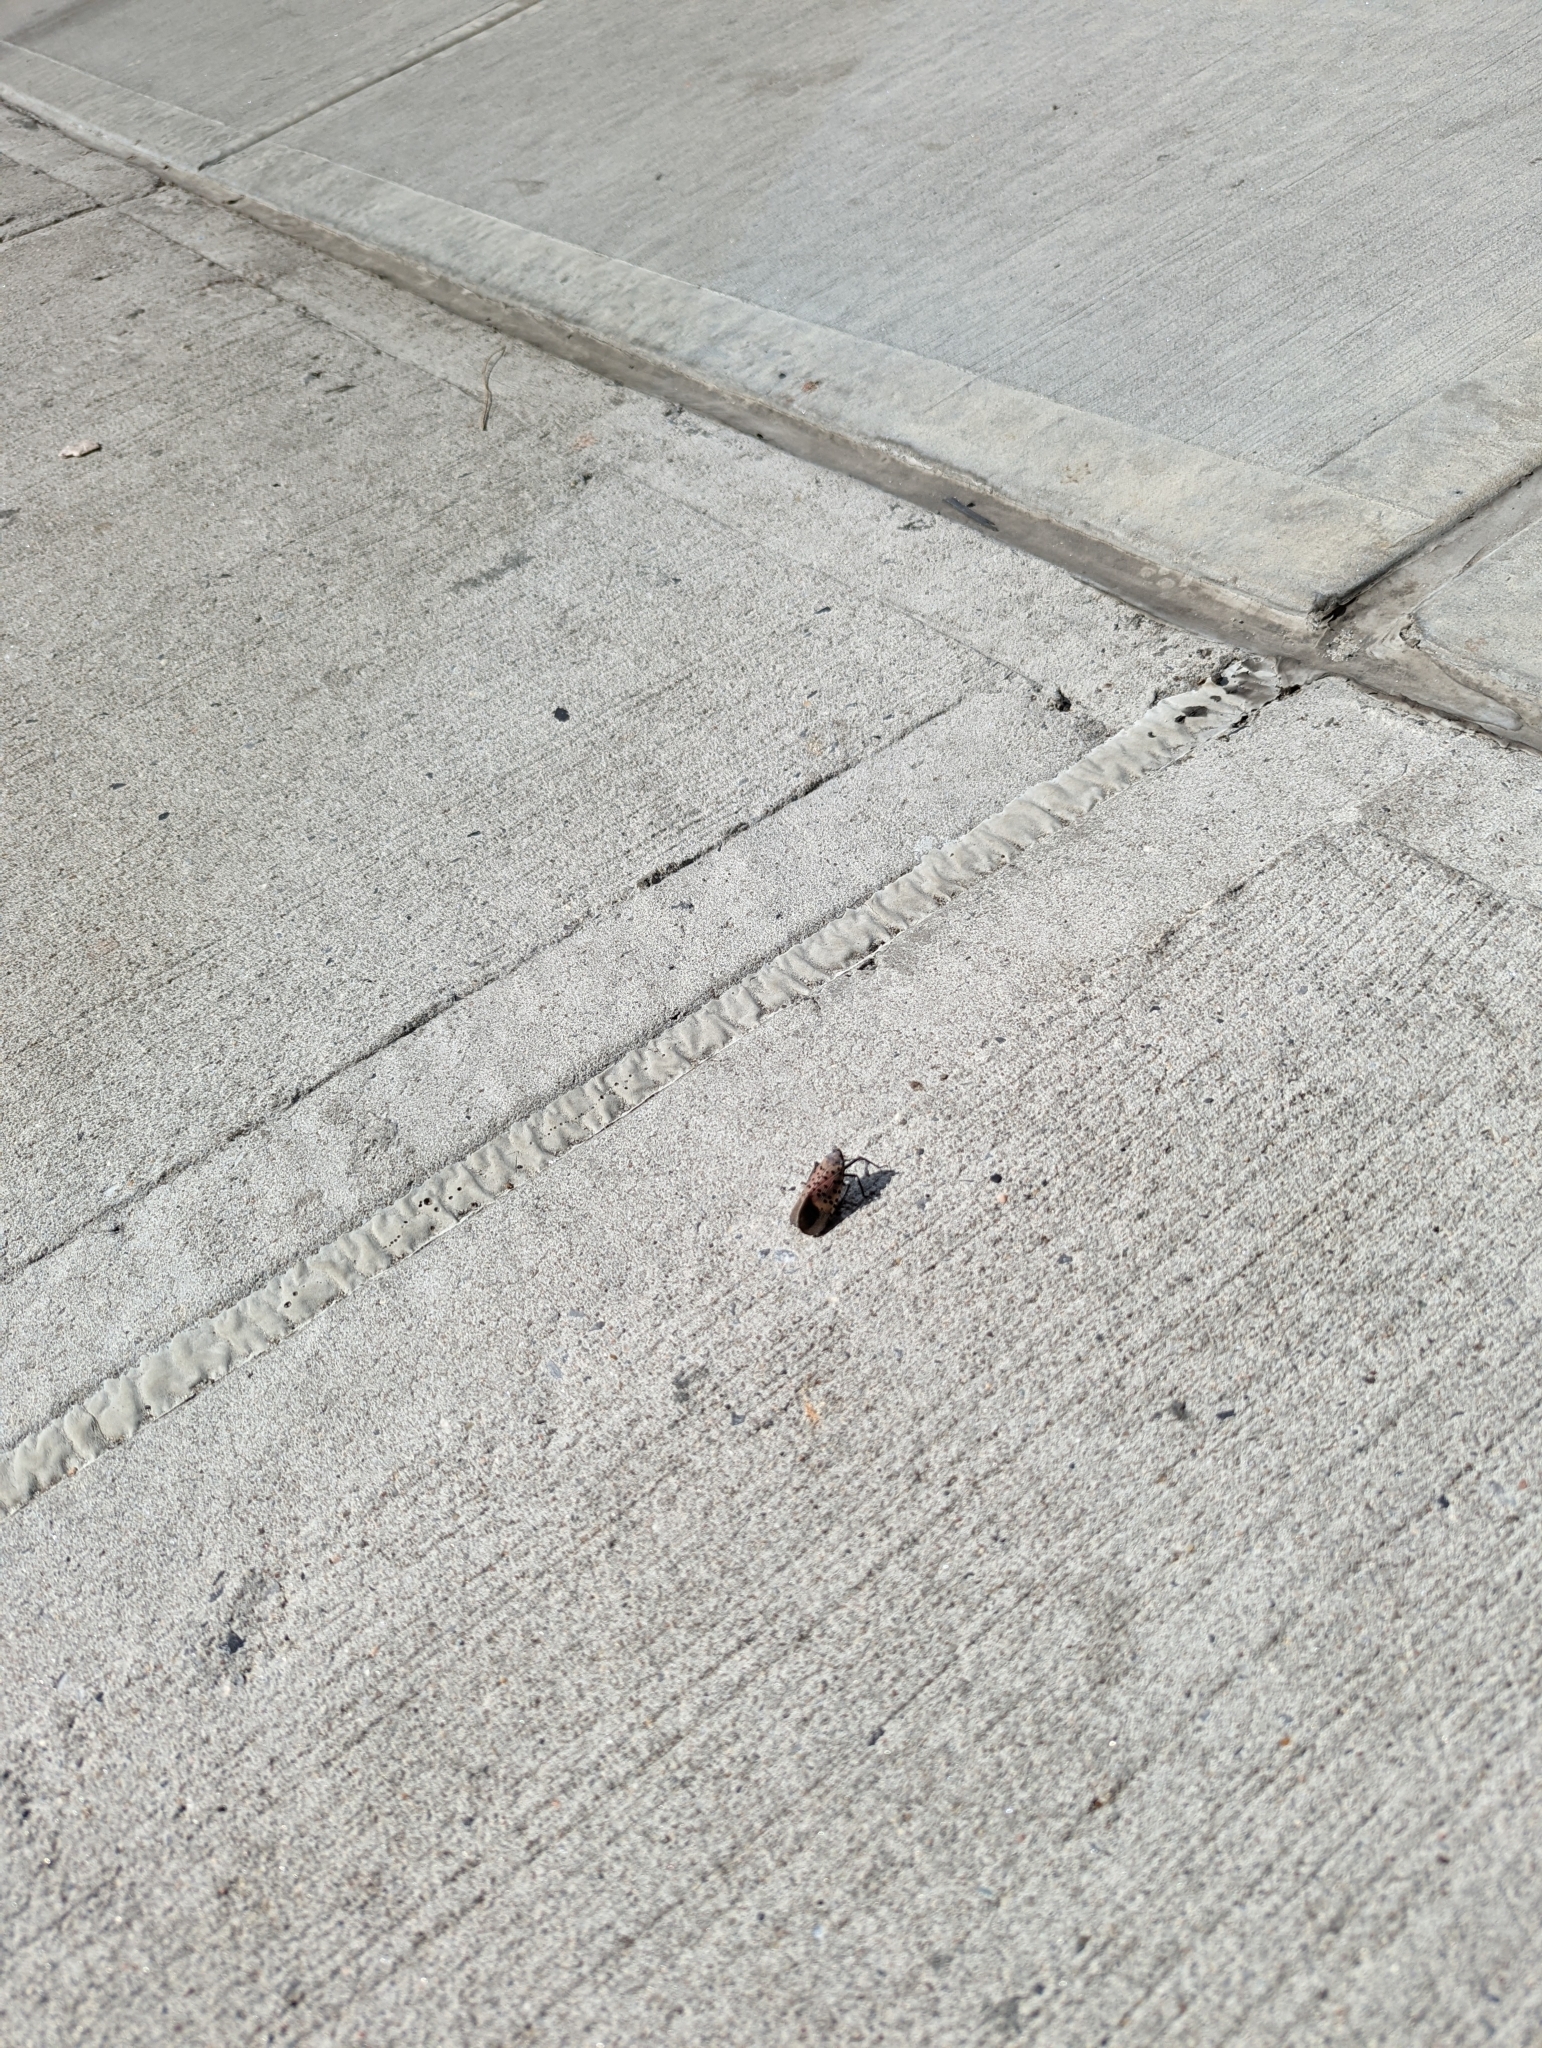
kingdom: Animalia
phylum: Arthropoda
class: Insecta
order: Hemiptera
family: Fulgoridae
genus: Lycorma
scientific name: Lycorma delicatula
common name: Spotted lanternfly
